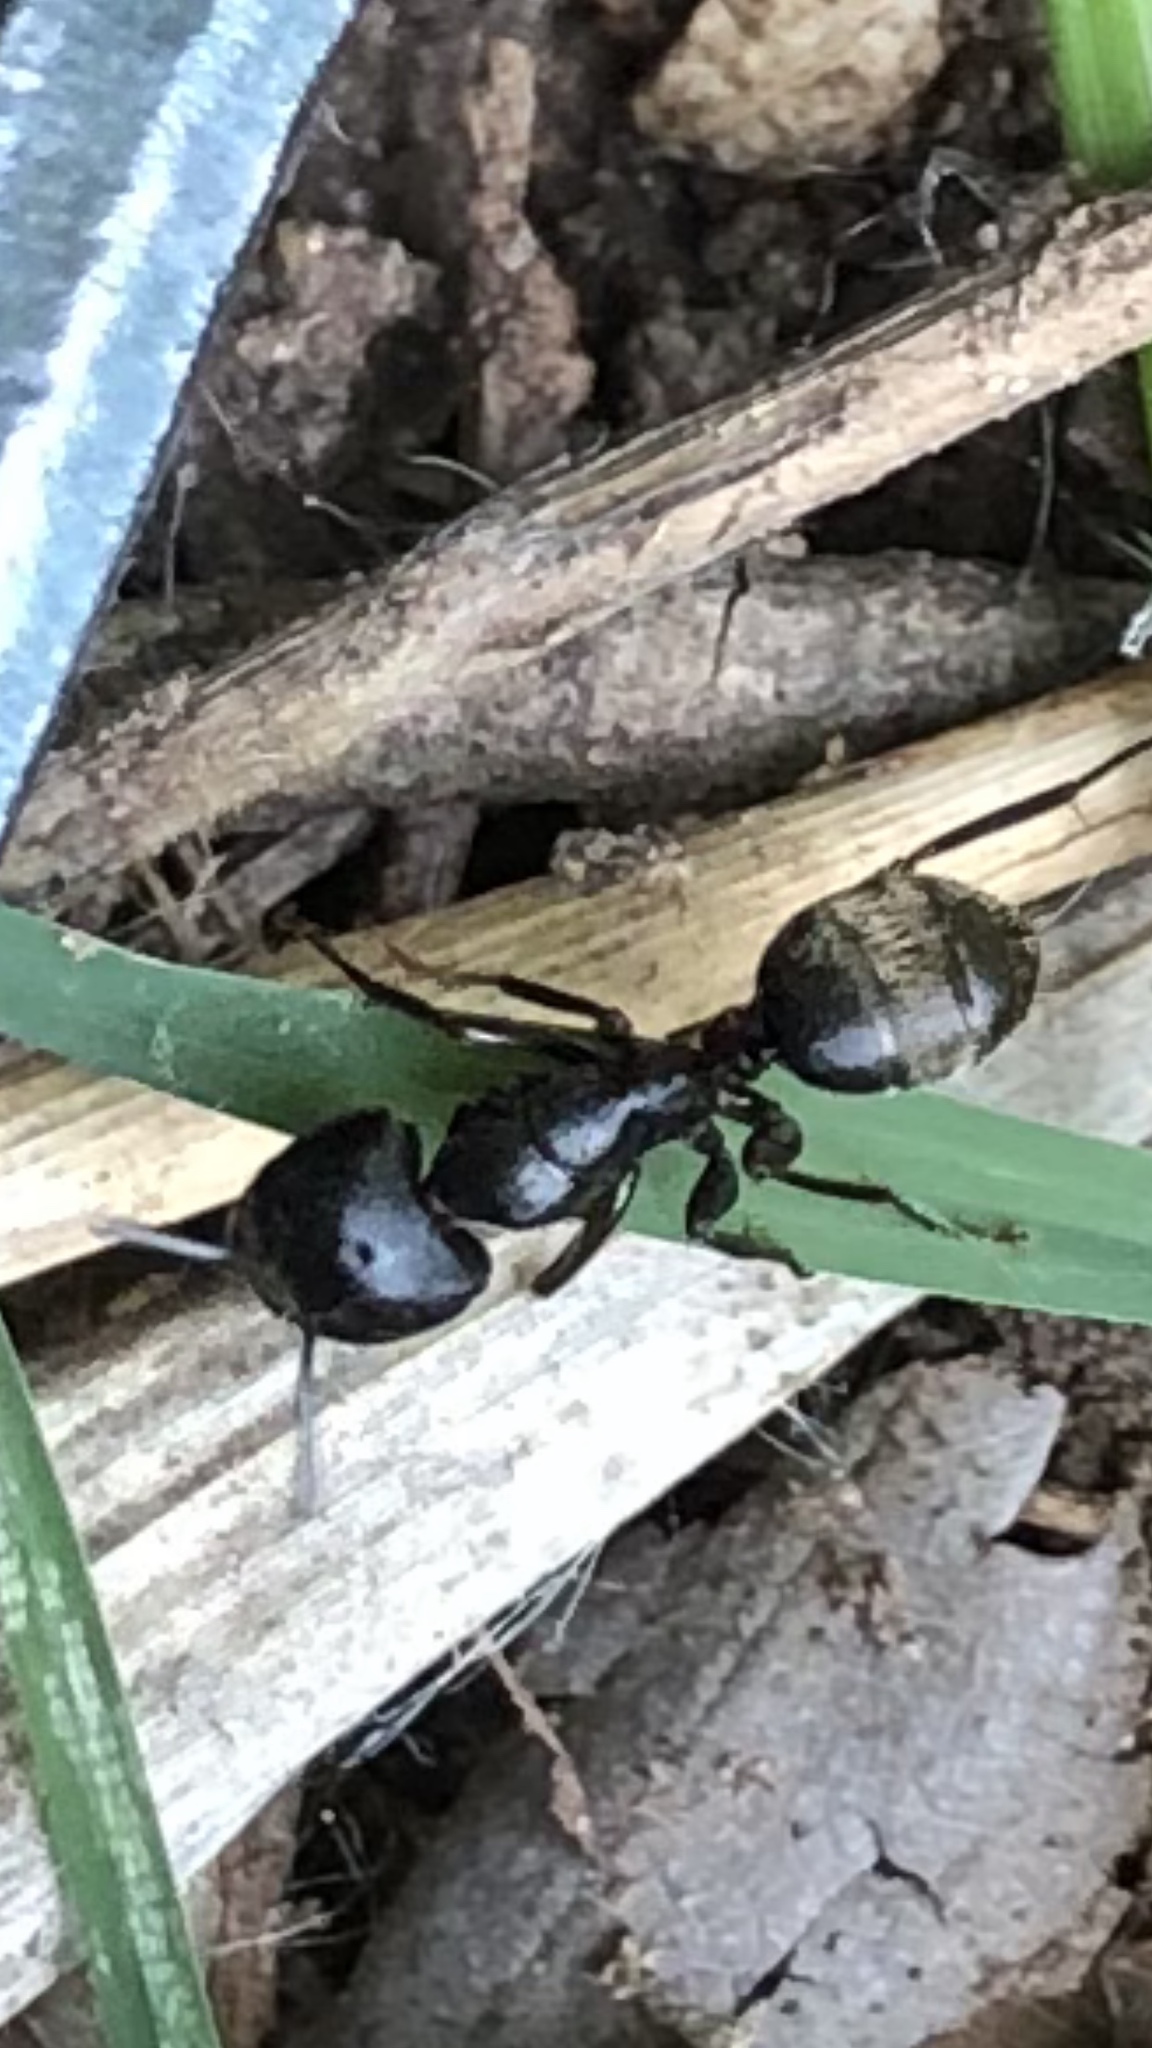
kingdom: Animalia
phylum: Arthropoda
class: Insecta
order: Hymenoptera
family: Formicidae
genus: Camponotus
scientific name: Camponotus pennsylvanicus
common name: Black carpenter ant
